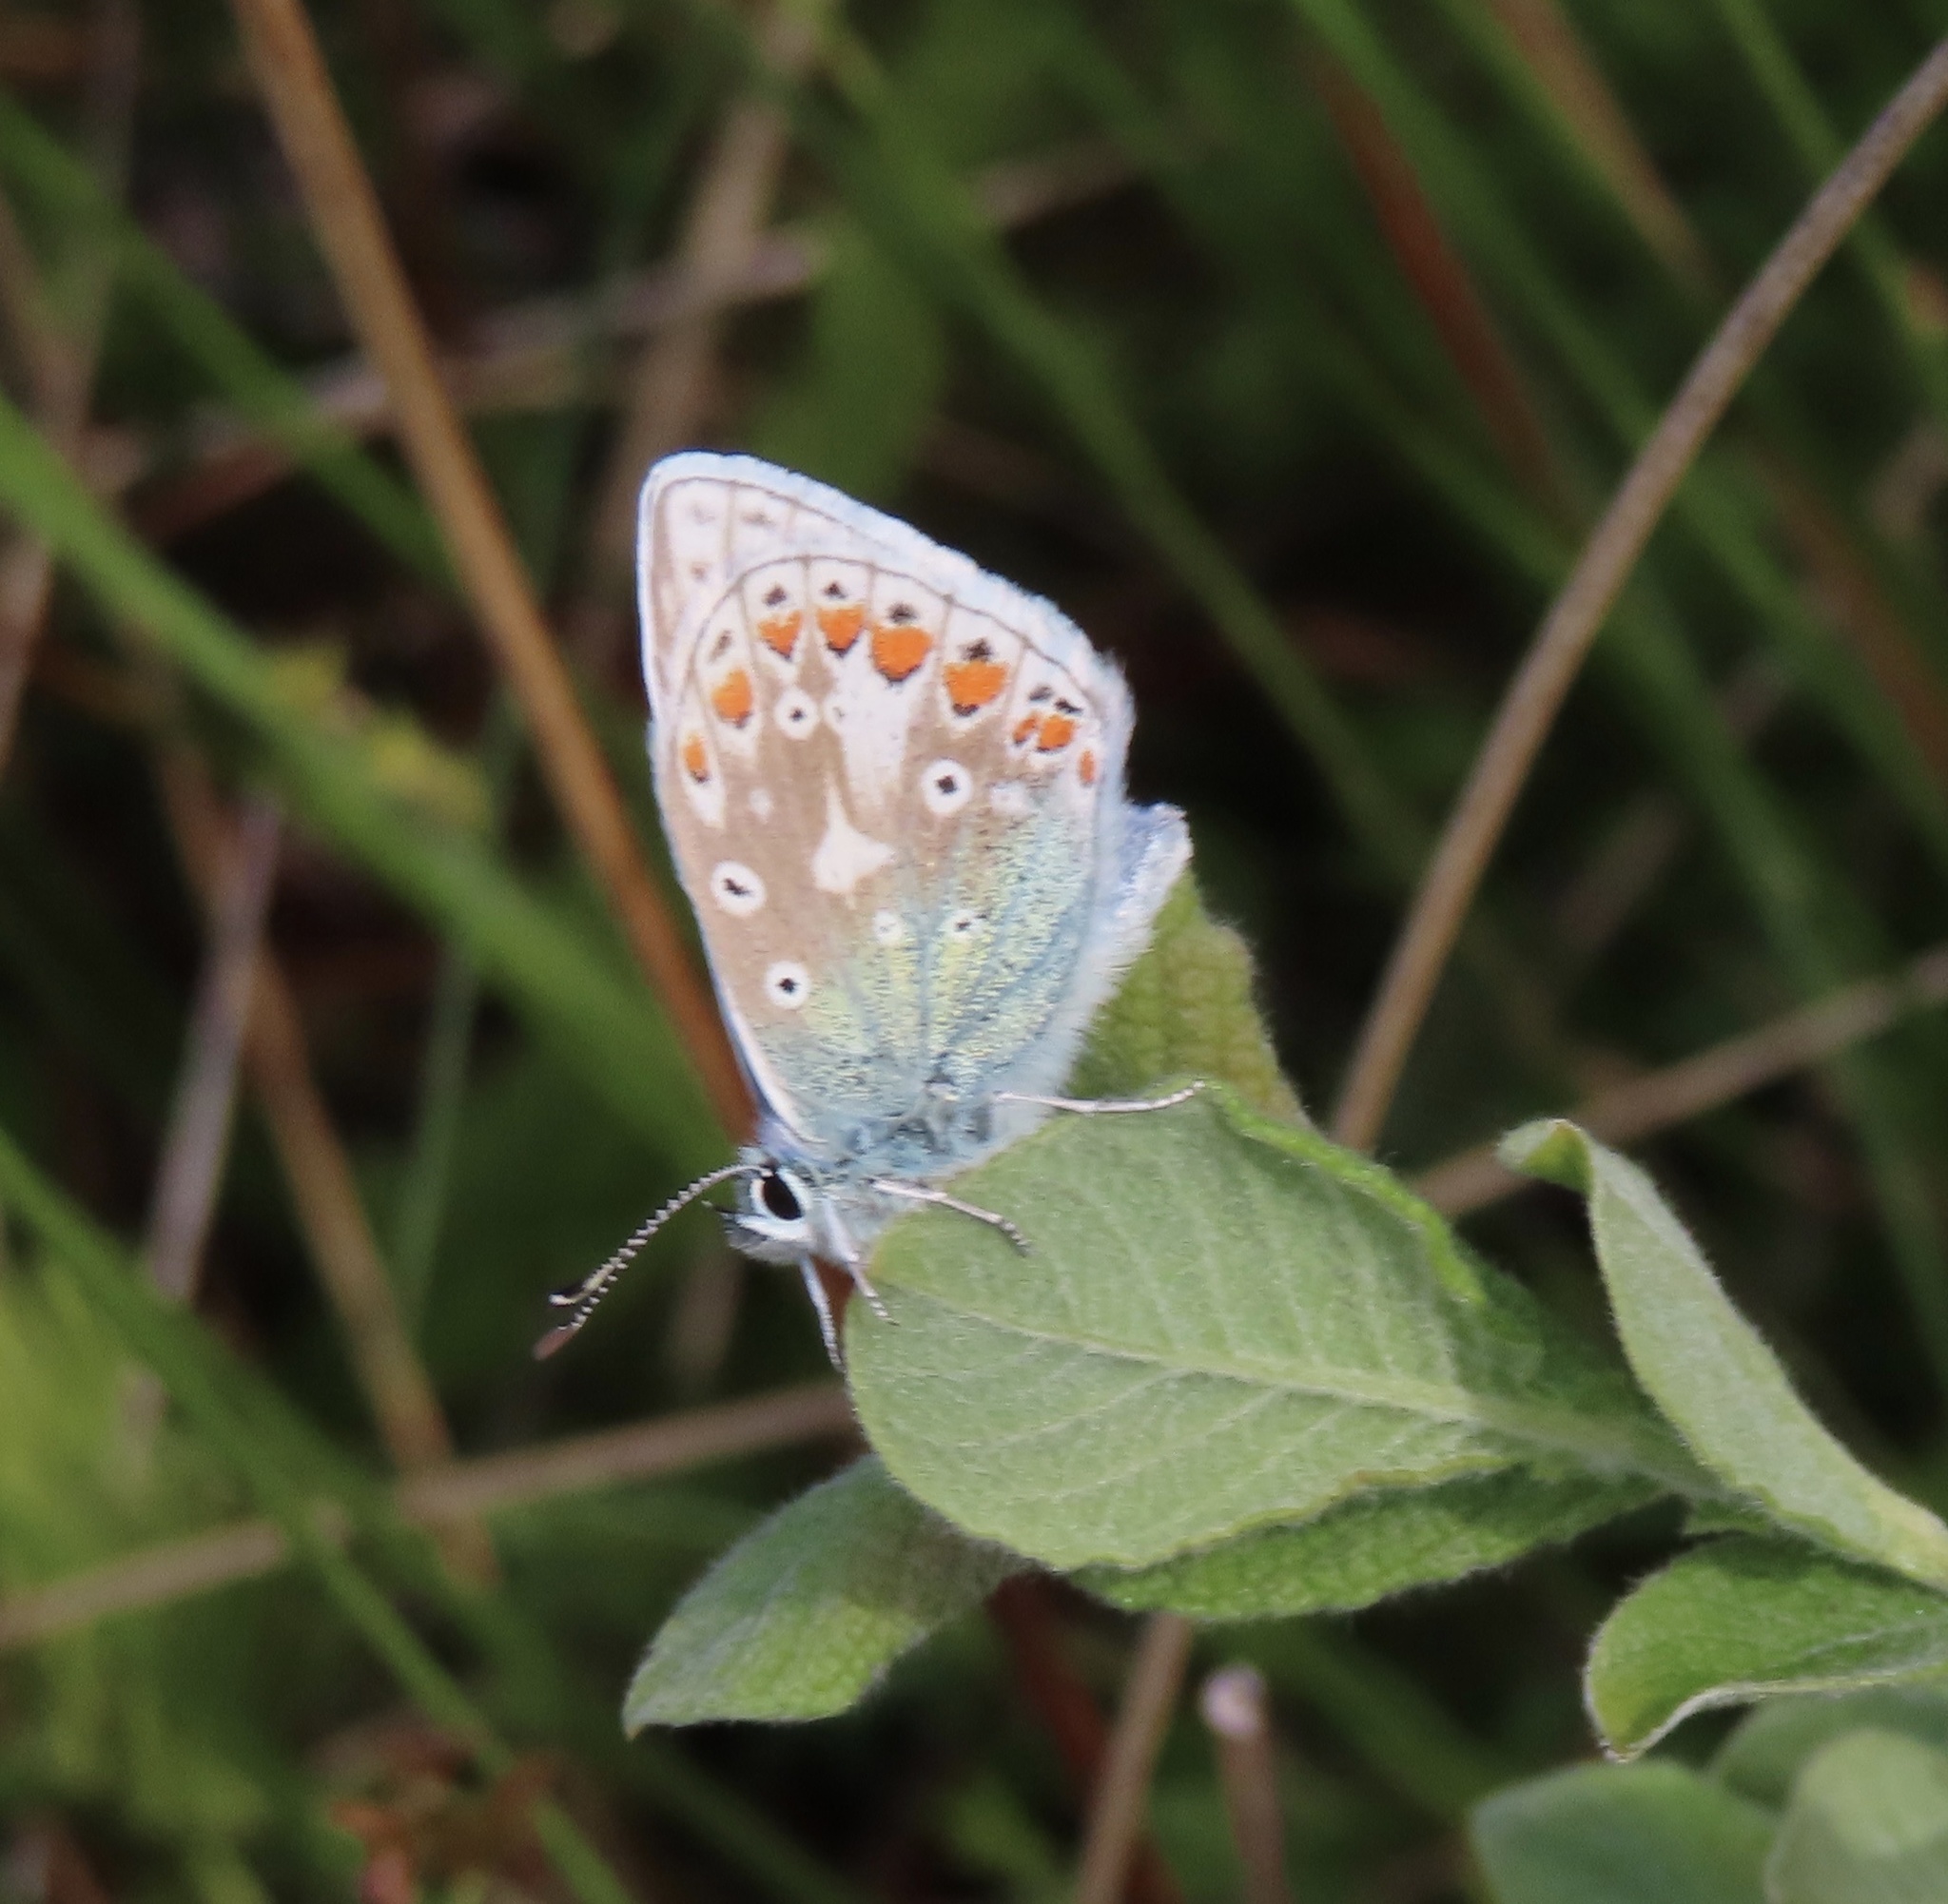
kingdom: Animalia
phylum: Arthropoda
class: Insecta
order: Lepidoptera
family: Lycaenidae
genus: Polyommatus
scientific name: Polyommatus icarus
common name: Common blue
